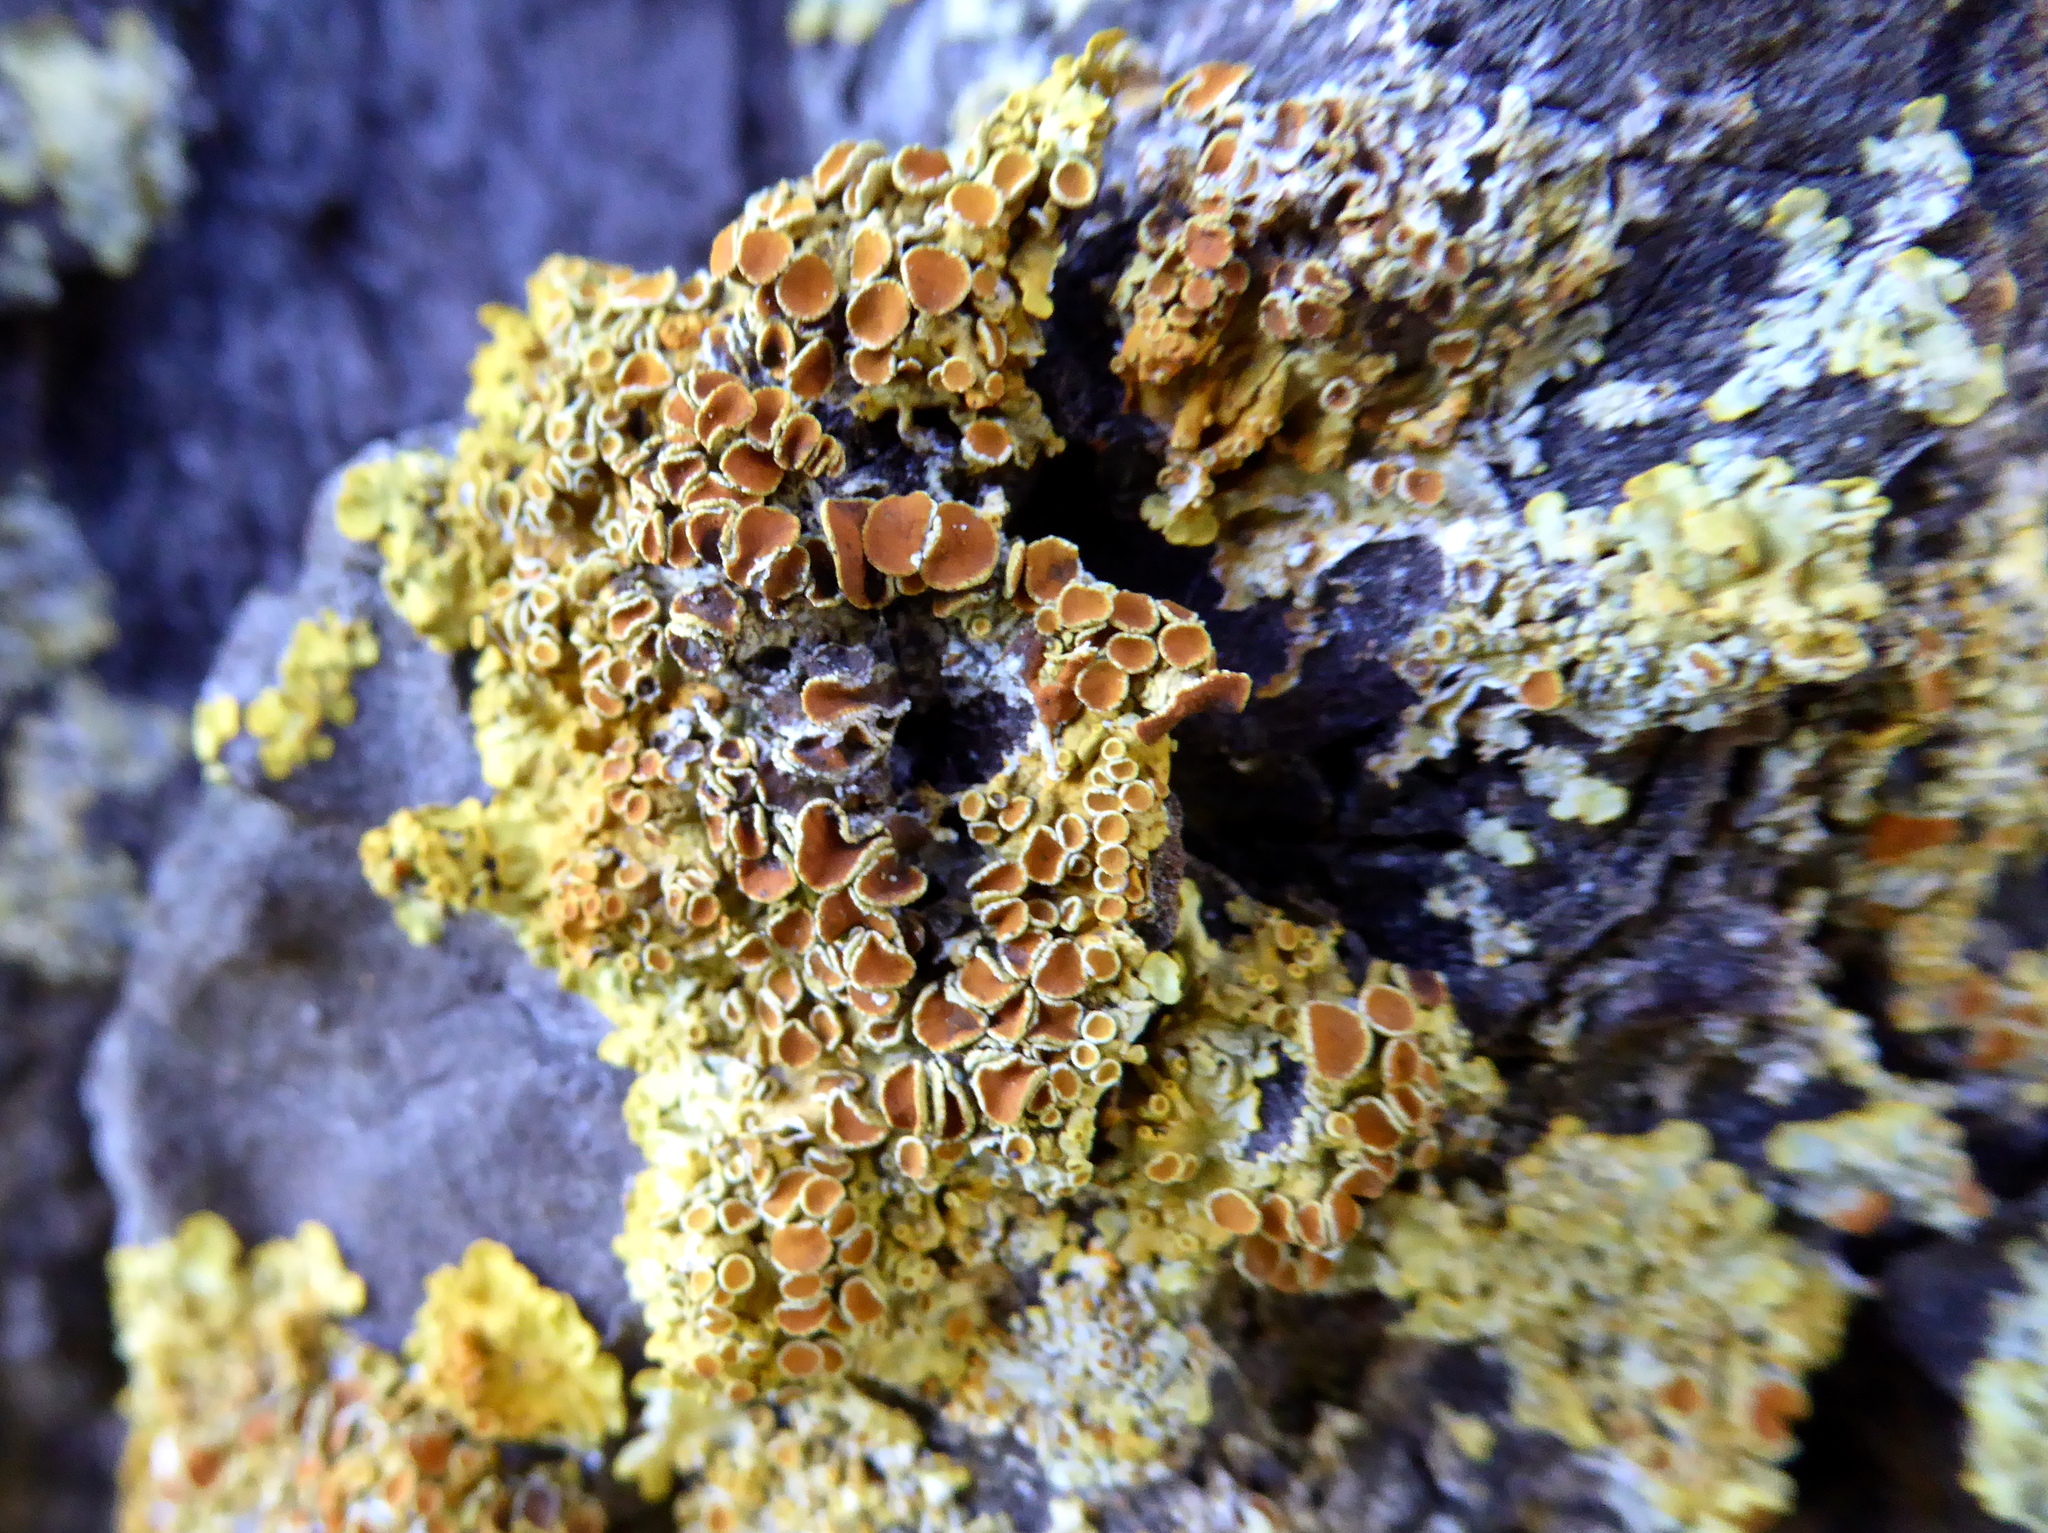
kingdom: Fungi
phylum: Ascomycota
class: Lecanoromycetes
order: Teloschistales
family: Teloschistaceae
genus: Xanthoria
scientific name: Xanthoria parietina
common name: Common orange lichen
